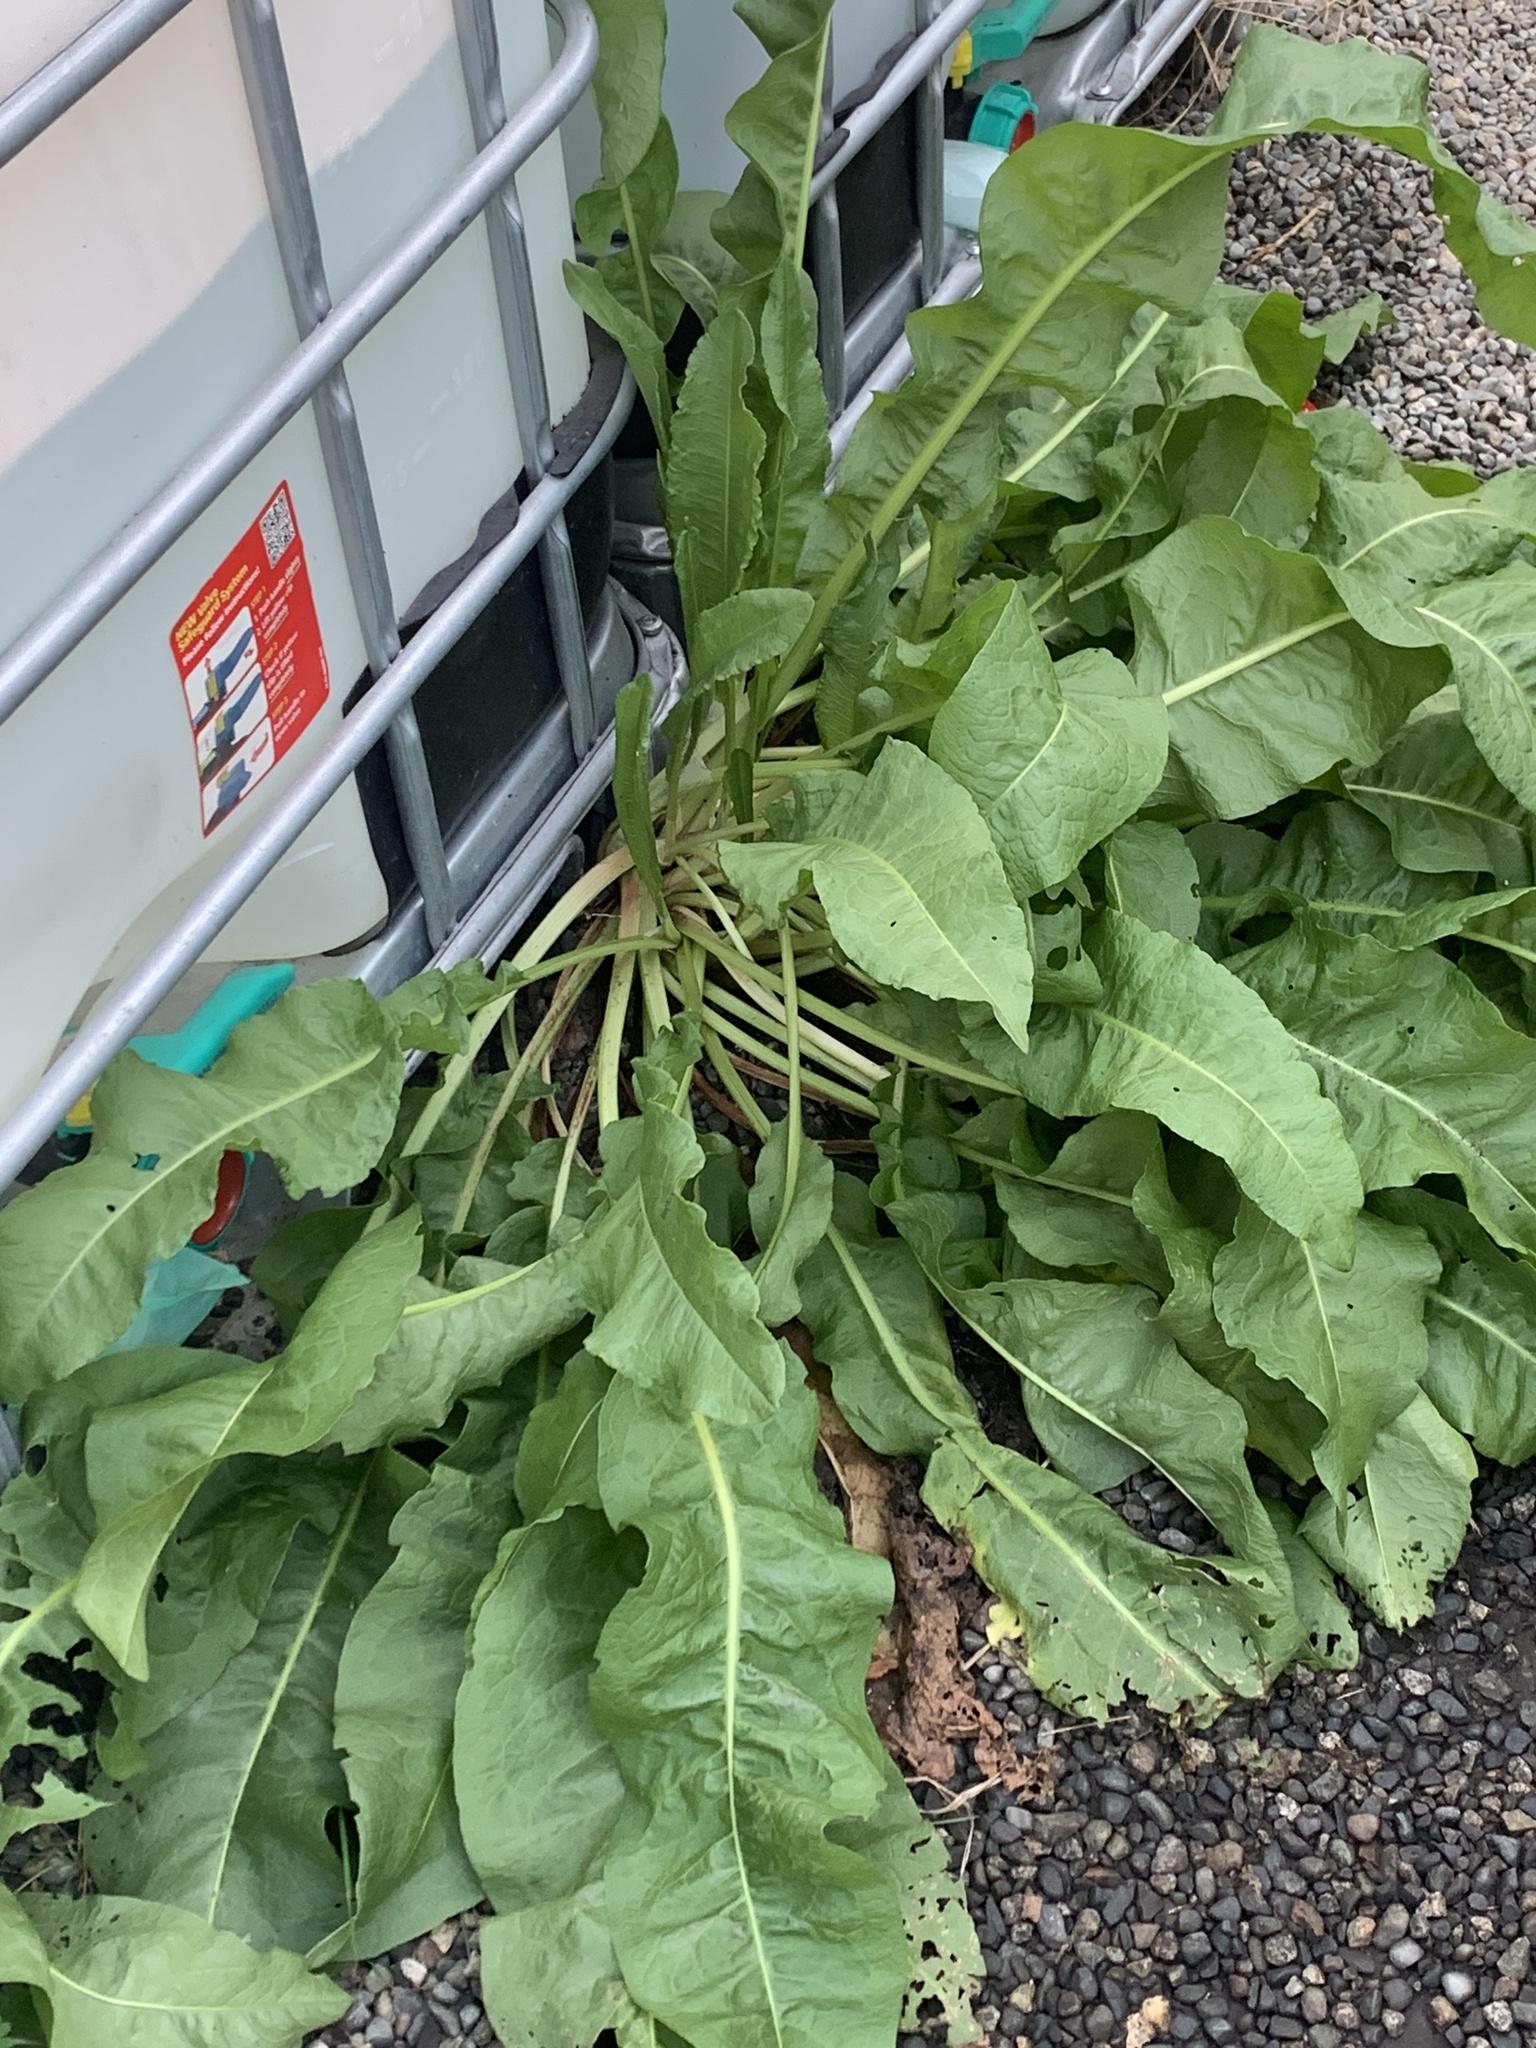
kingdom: Plantae
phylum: Tracheophyta
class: Magnoliopsida
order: Caryophyllales
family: Polygonaceae
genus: Rumex
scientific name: Rumex crispus
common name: Curled dock
